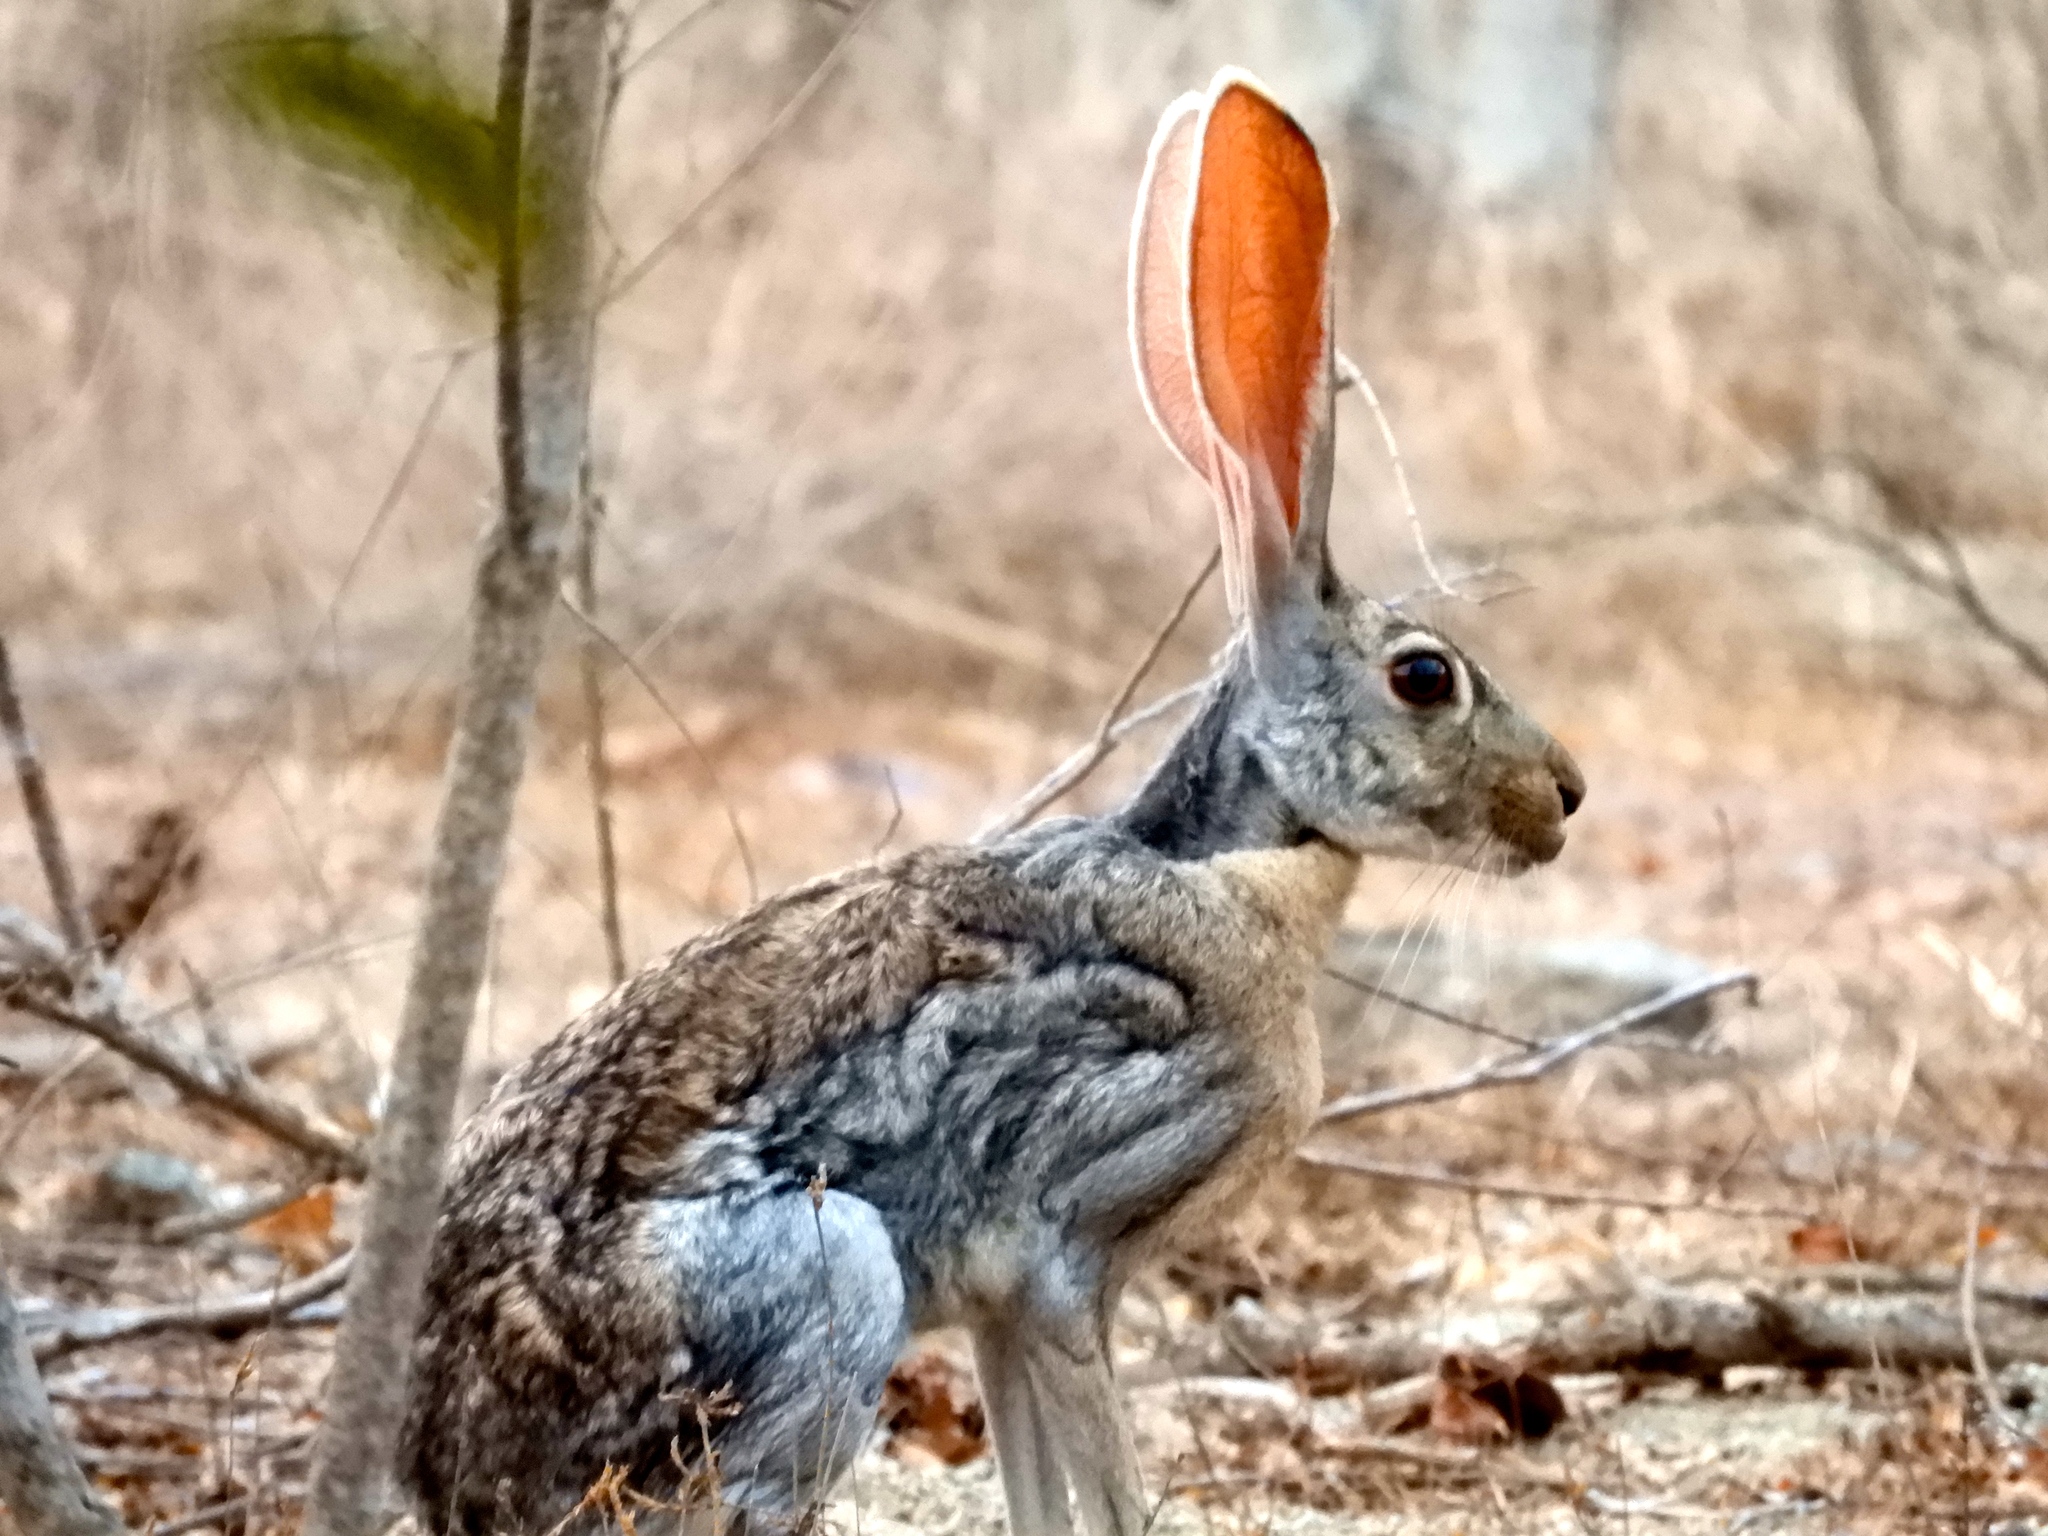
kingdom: Animalia
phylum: Chordata
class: Mammalia
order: Lagomorpha
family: Leporidae
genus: Lepus
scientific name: Lepus alleni
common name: Antelope jackrabbit
